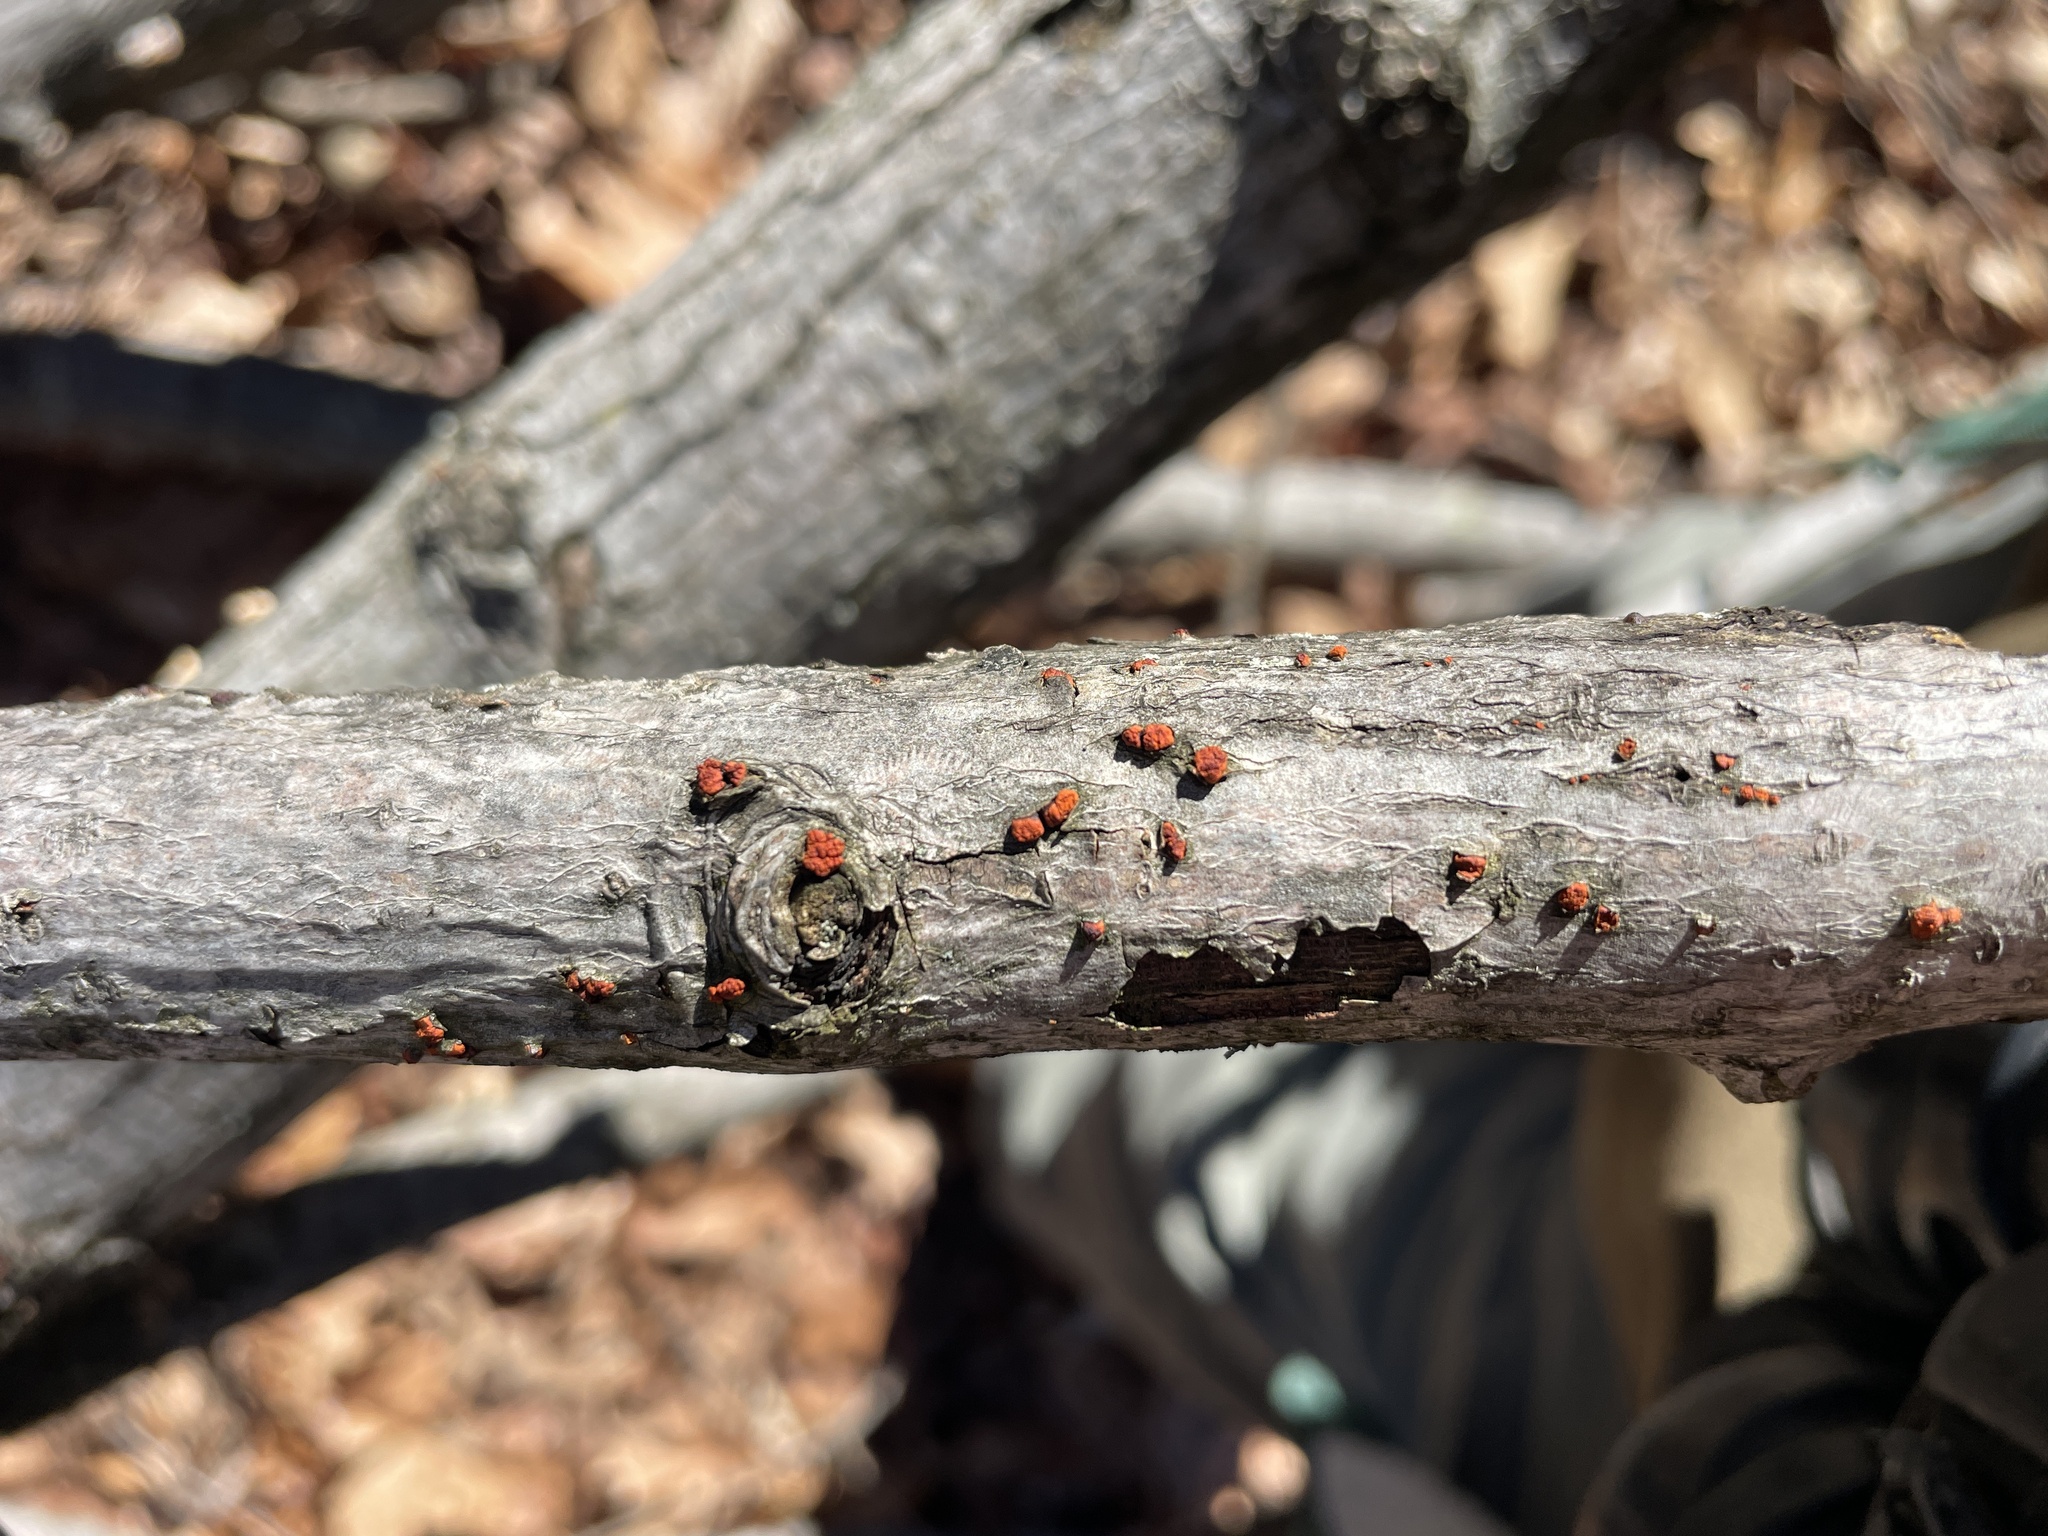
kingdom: Fungi
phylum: Ascomycota
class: Sordariomycetes
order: Diaporthales
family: Cryphonectriaceae
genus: Amphilogia
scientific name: Amphilogia gyrosa
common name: Orange hobnail canker
